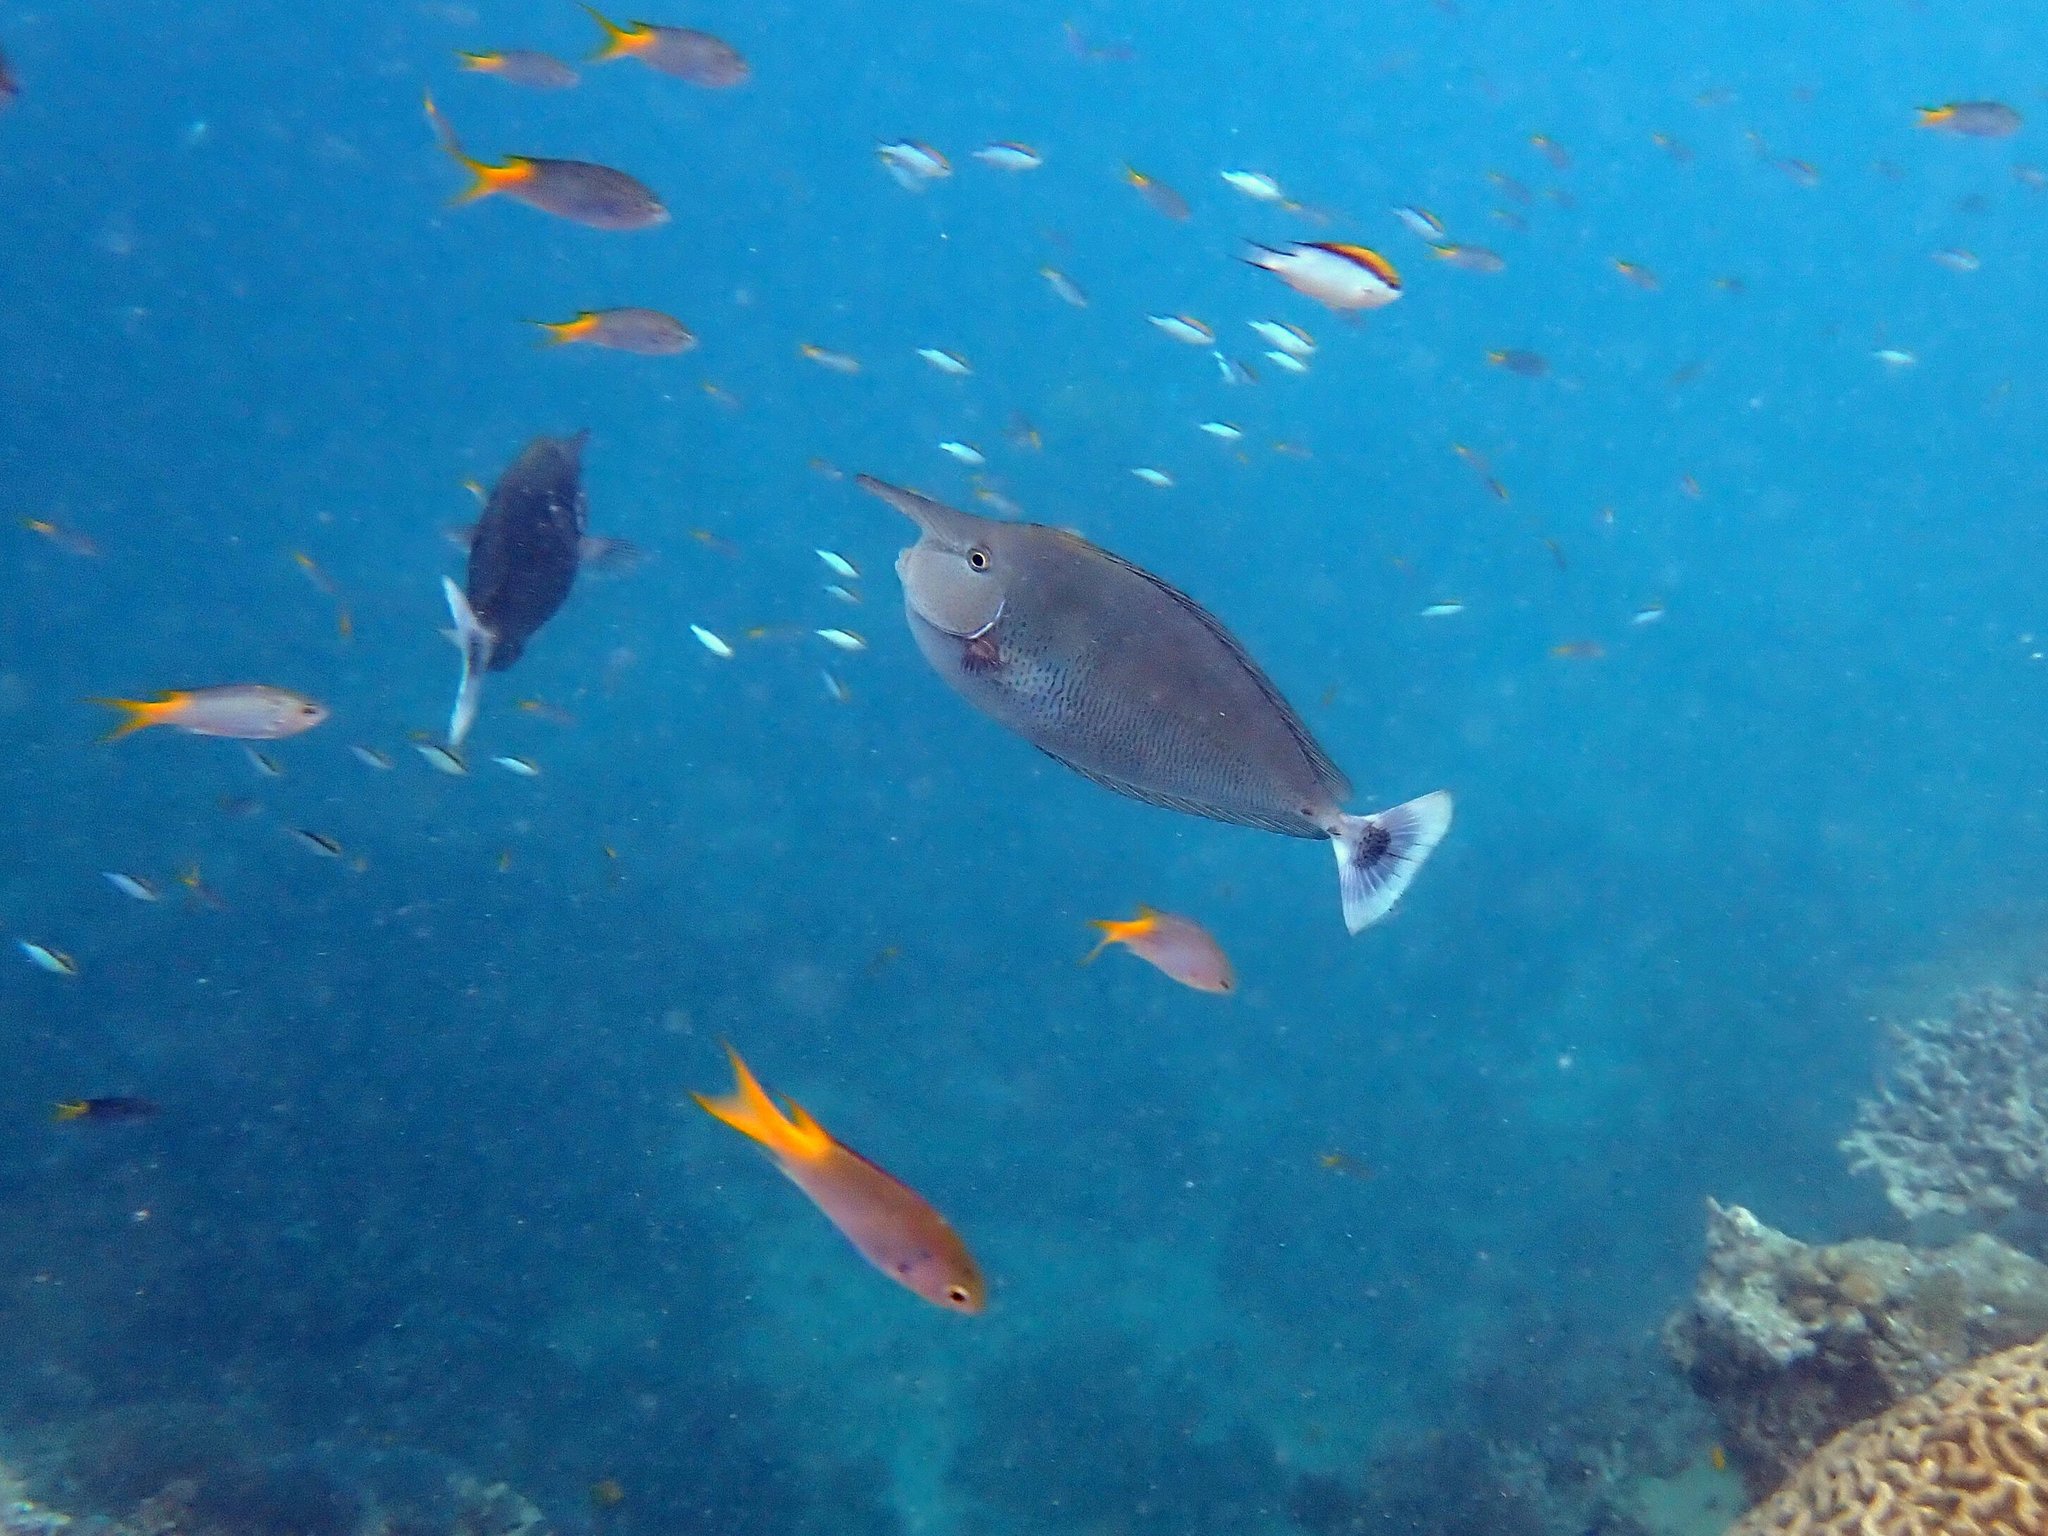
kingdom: Animalia
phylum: Chordata
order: Perciformes
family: Acanthuridae
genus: Naso
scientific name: Naso brevirostris
